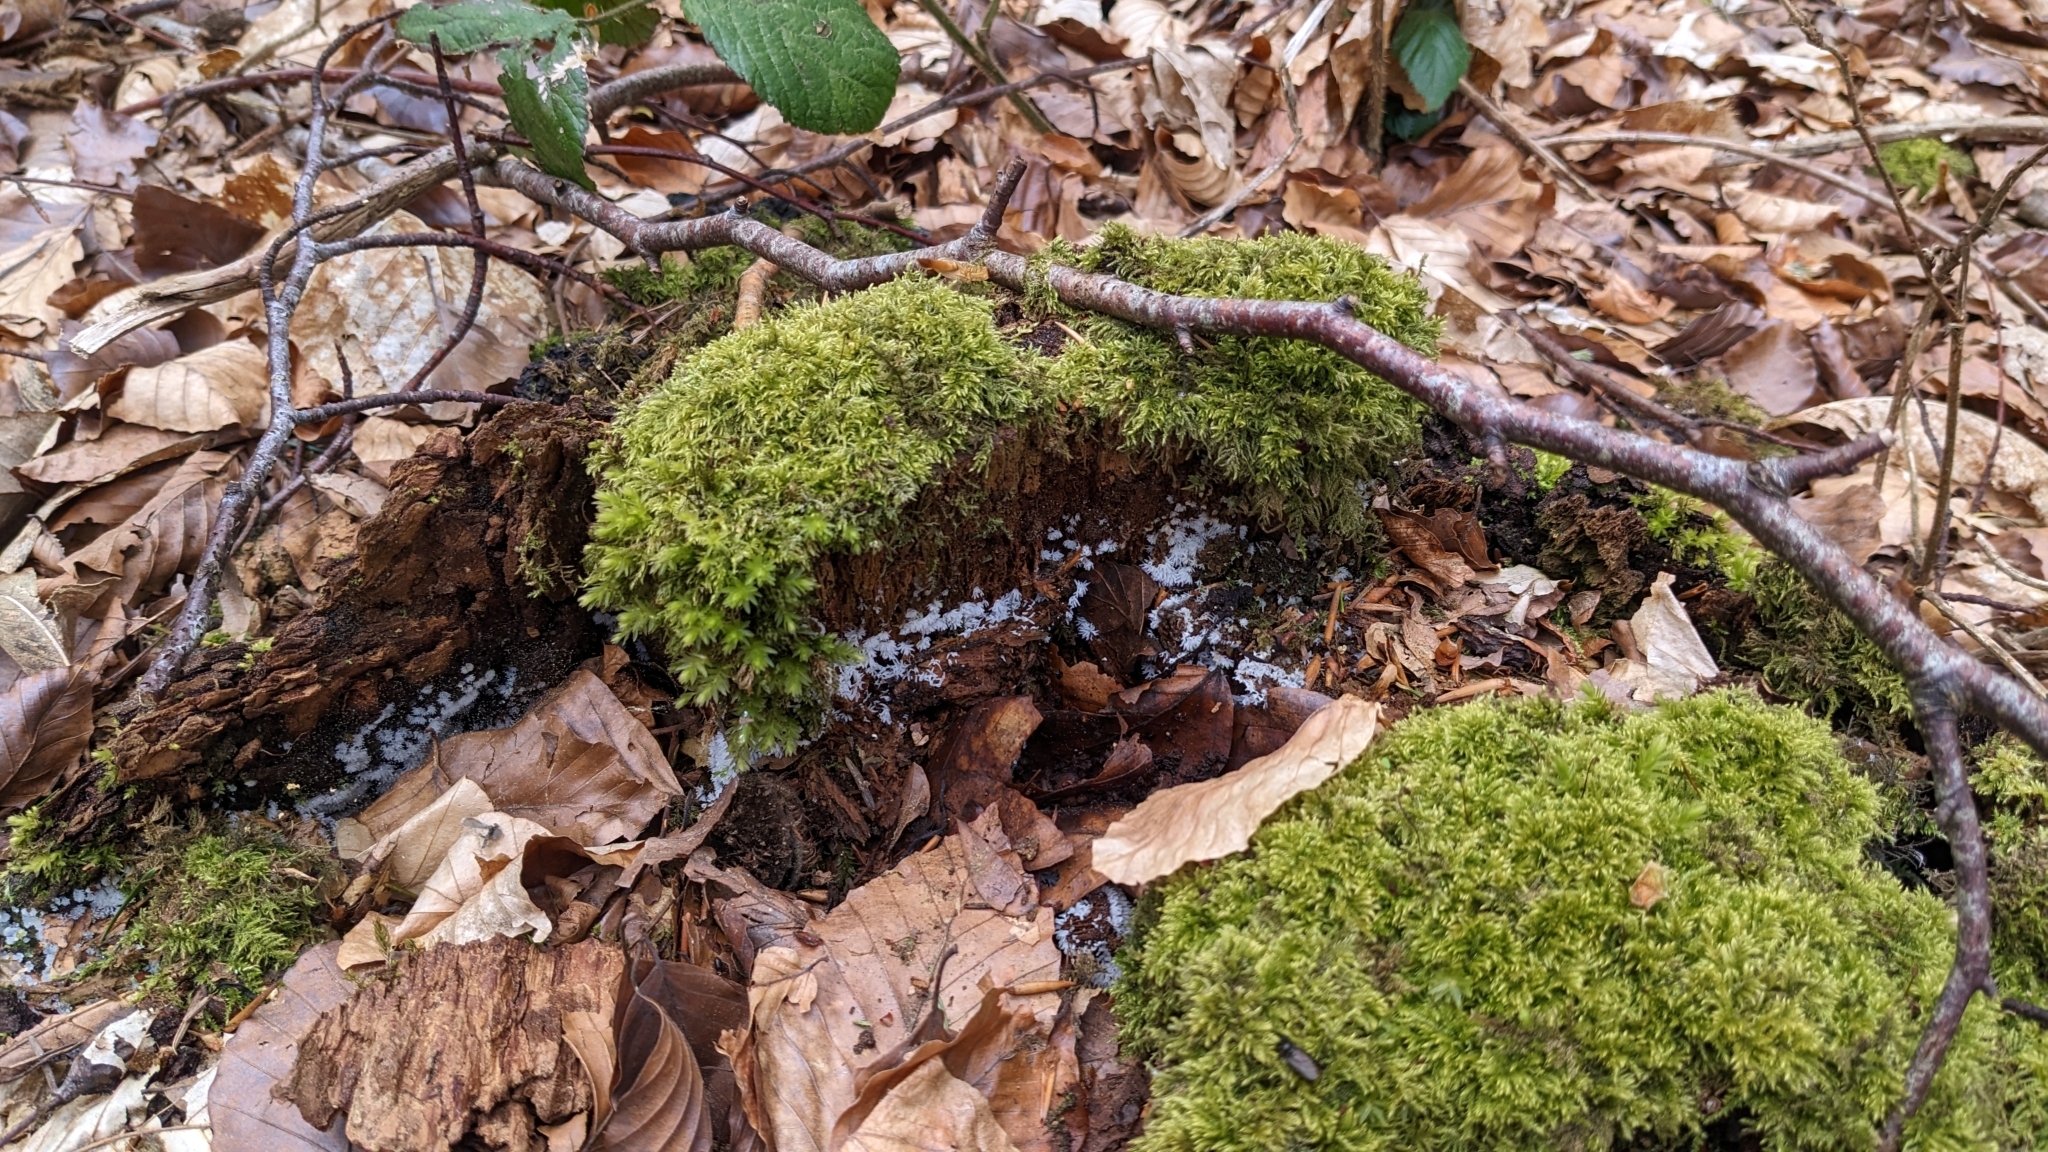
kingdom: Protozoa
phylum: Mycetozoa
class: Protosteliomycetes
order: Ceratiomyxales
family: Ceratiomyxaceae
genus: Ceratiomyxa
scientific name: Ceratiomyxa fruticulosa
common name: Honeycomb coral slime mold
